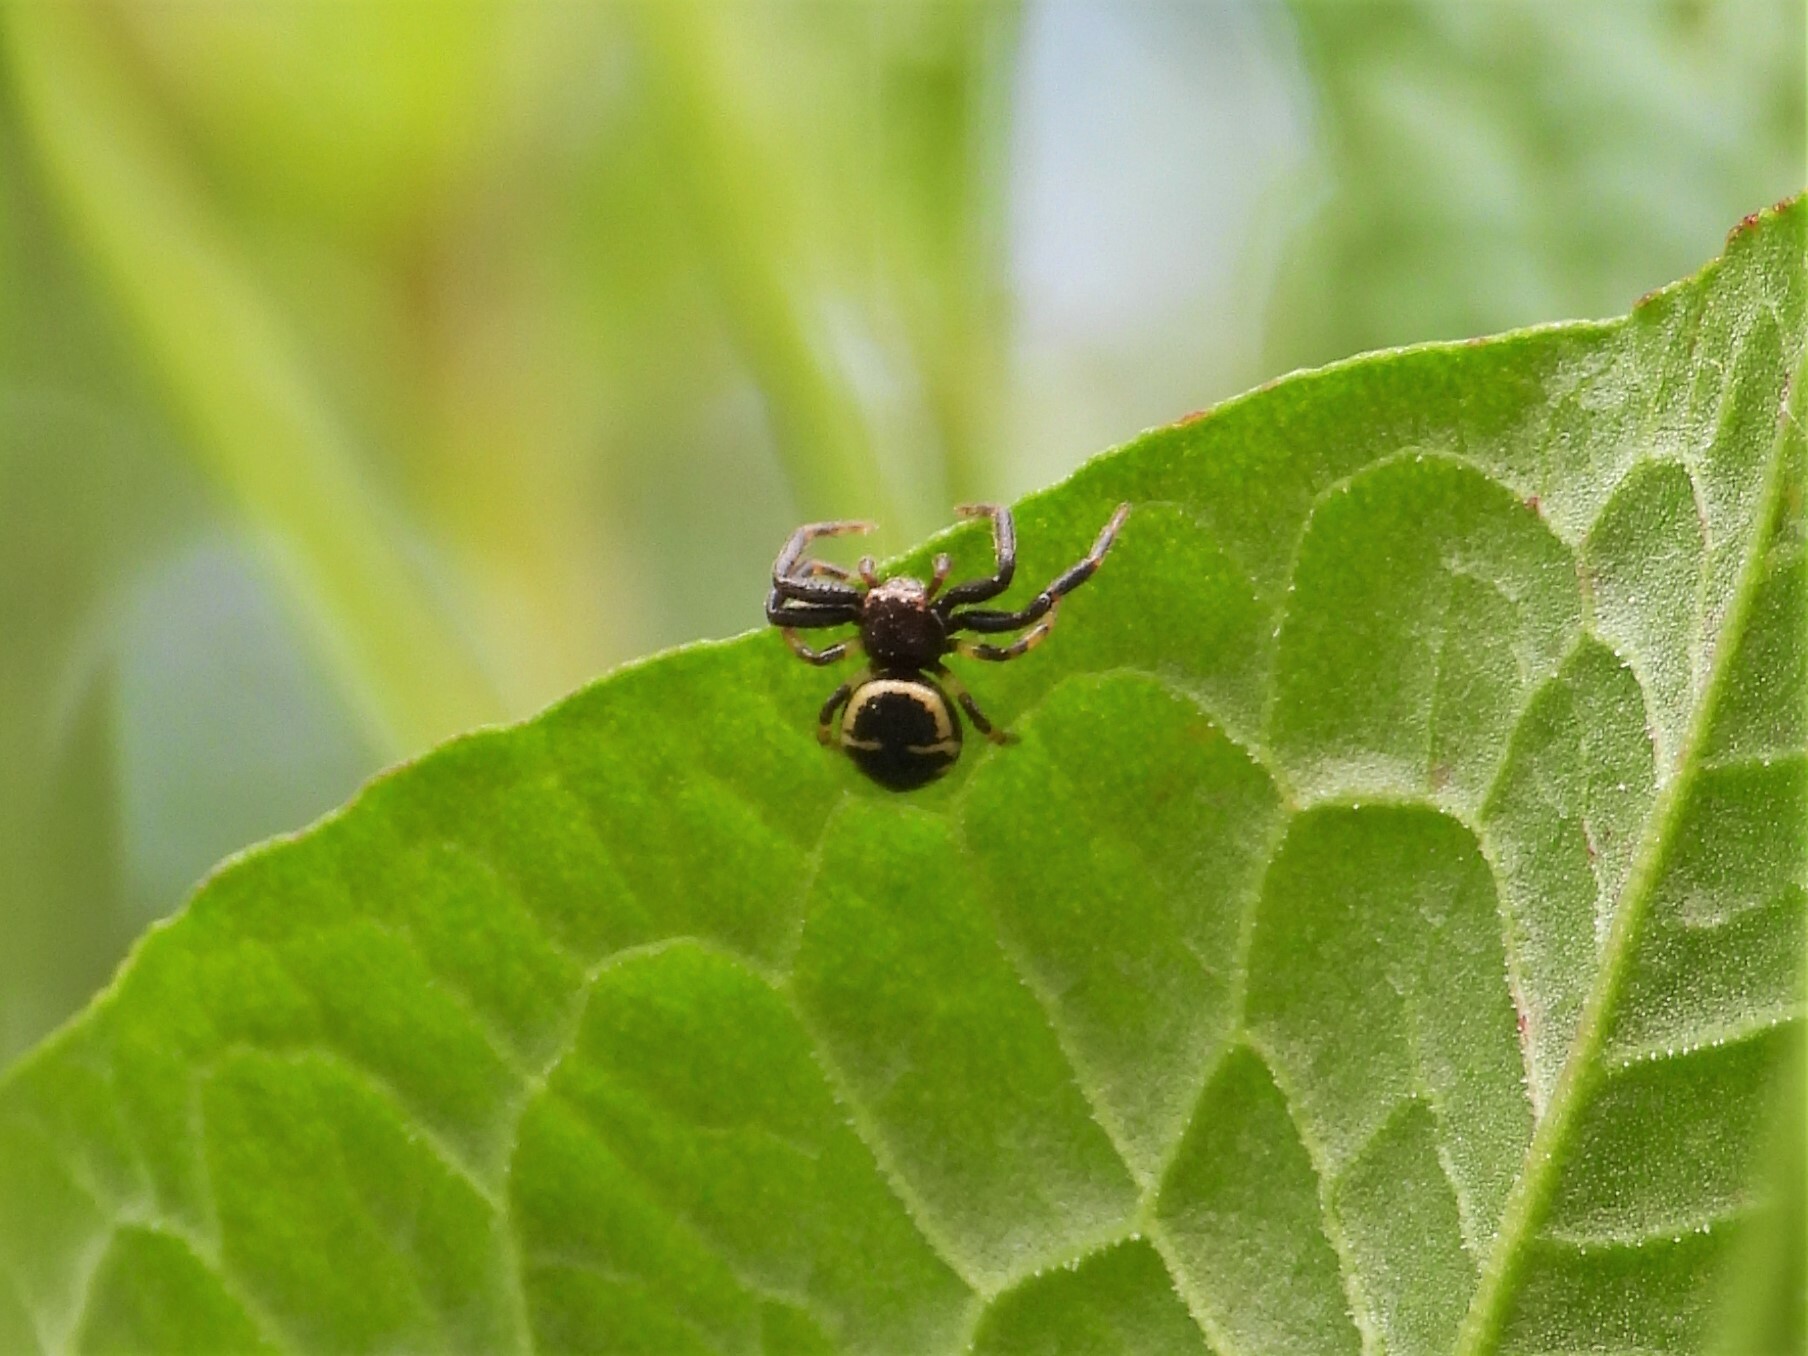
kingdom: Animalia
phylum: Arthropoda
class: Arachnida
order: Araneae
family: Thomisidae
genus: Synema
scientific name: Synema globosum
